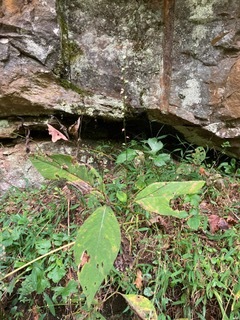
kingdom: Plantae
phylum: Tracheophyta
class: Magnoliopsida
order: Caryophyllales
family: Polygonaceae
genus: Persicaria
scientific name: Persicaria virginiana
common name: Jumpseed
